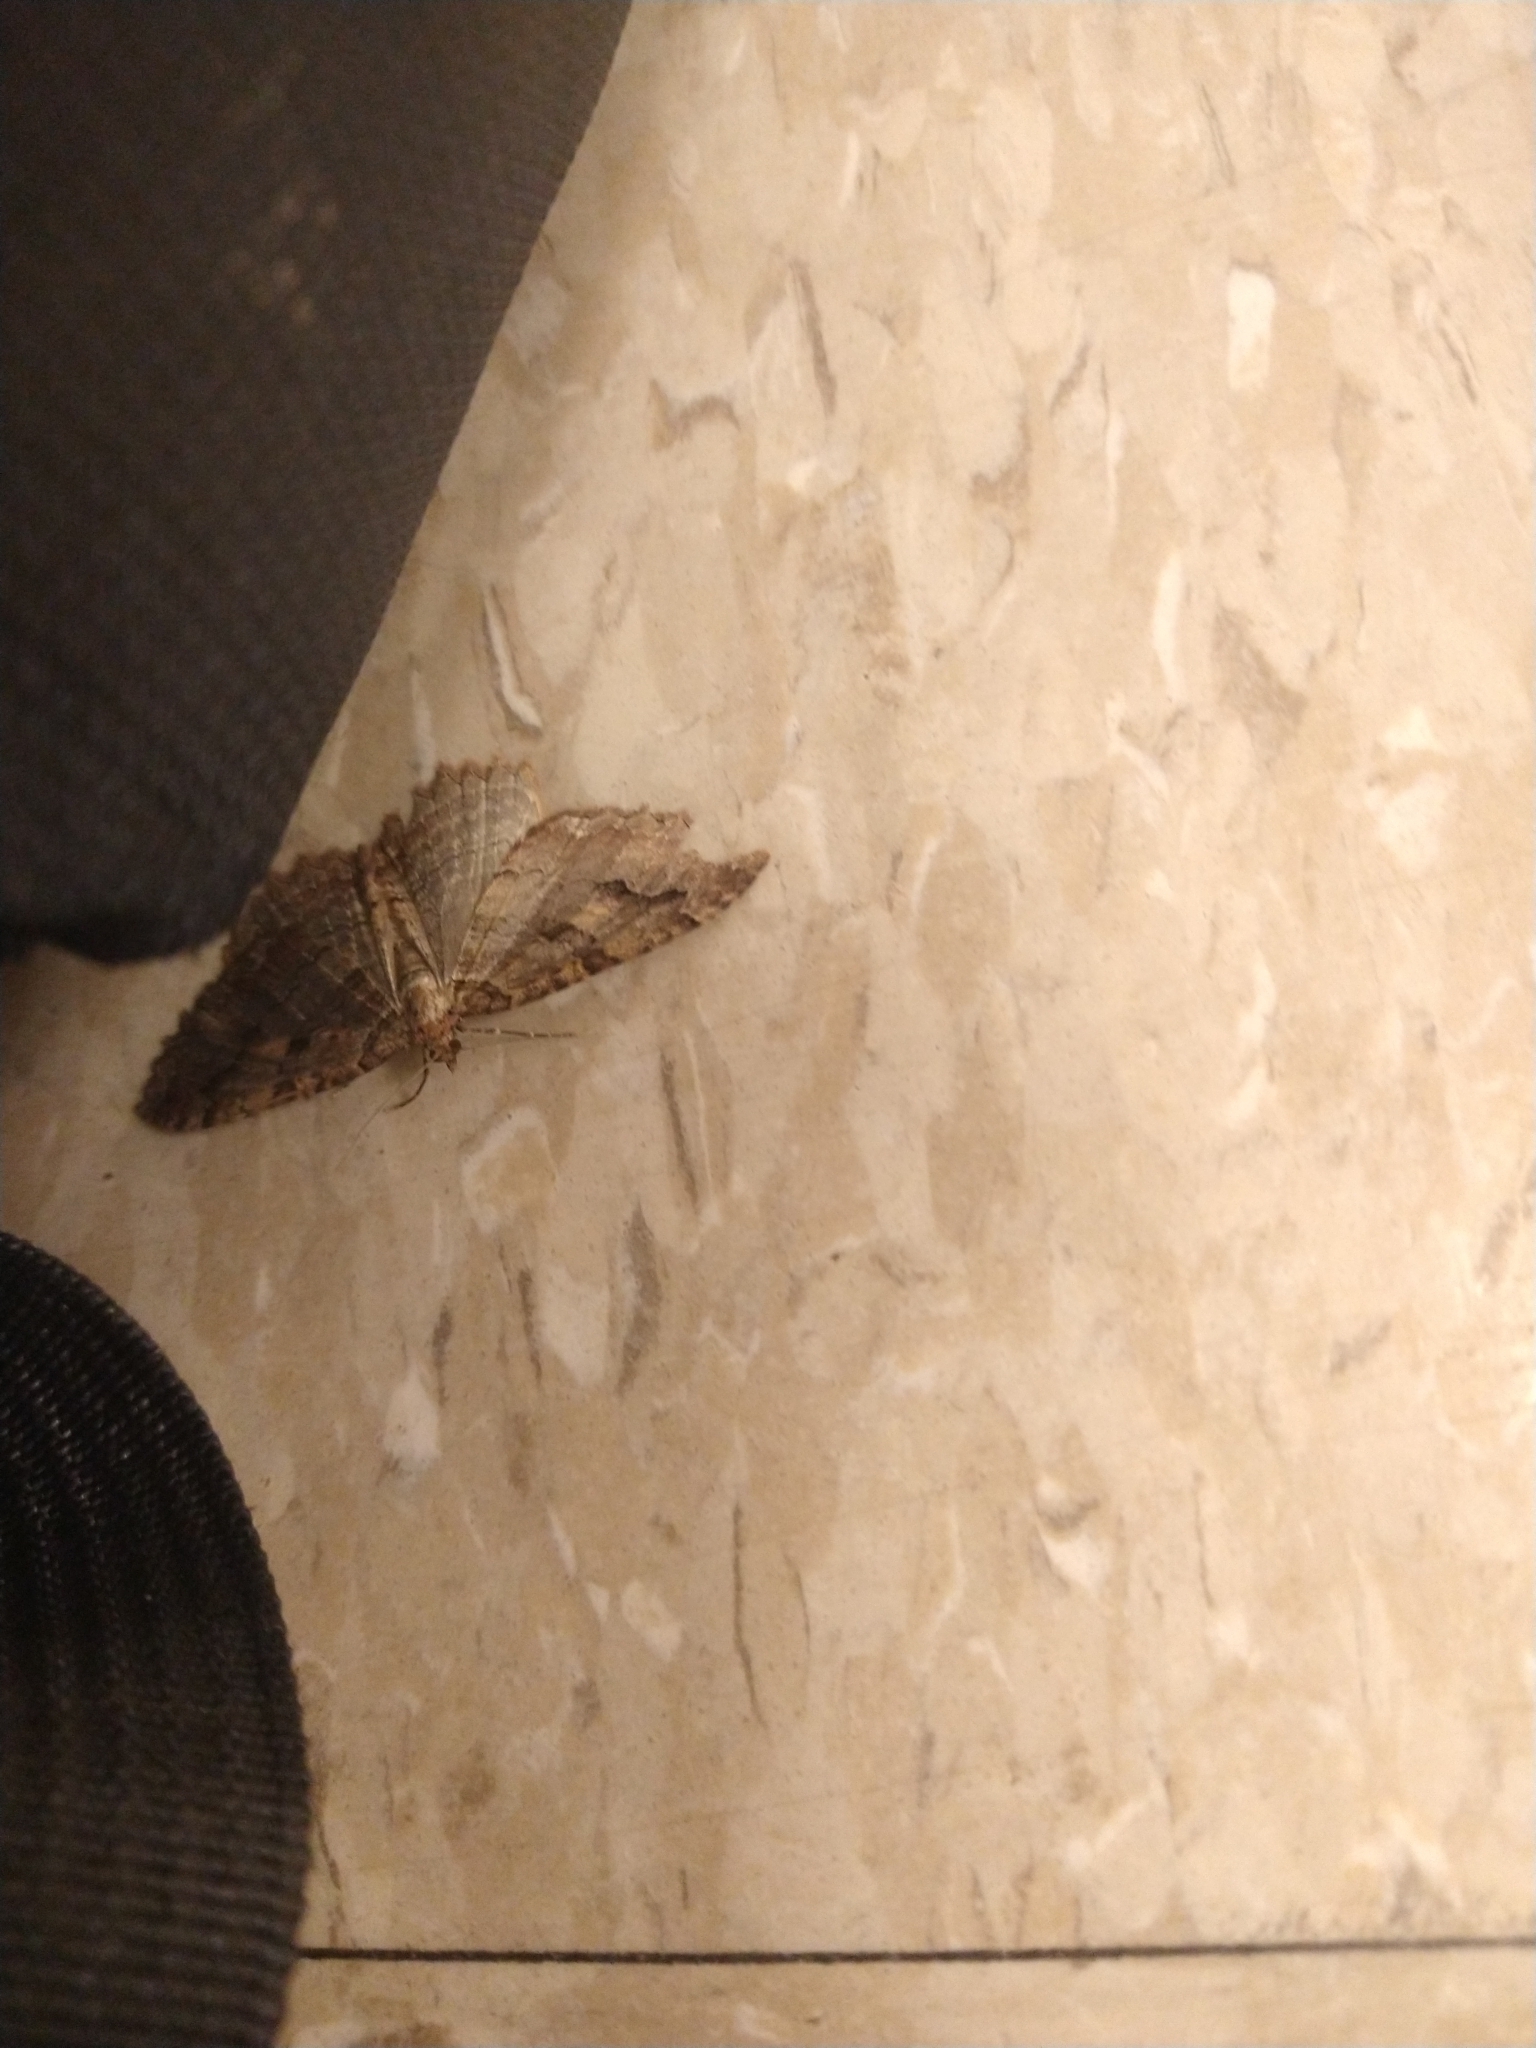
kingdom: Animalia
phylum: Arthropoda
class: Insecta
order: Lepidoptera
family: Geometridae
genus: Triphosa
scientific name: Triphosa haesitata
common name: Tissue moth
